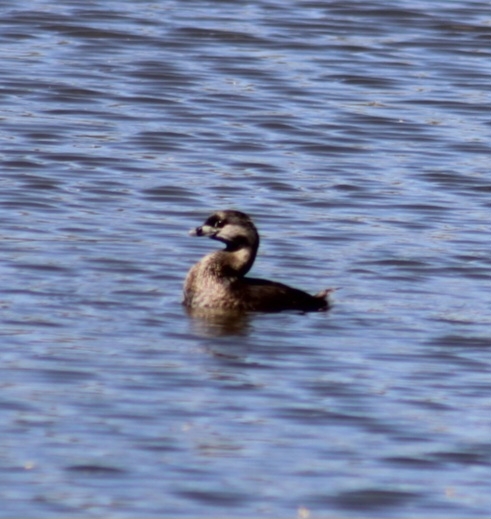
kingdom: Animalia
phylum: Chordata
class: Aves
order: Podicipediformes
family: Podicipedidae
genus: Podilymbus
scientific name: Podilymbus podiceps
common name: Pied-billed grebe
